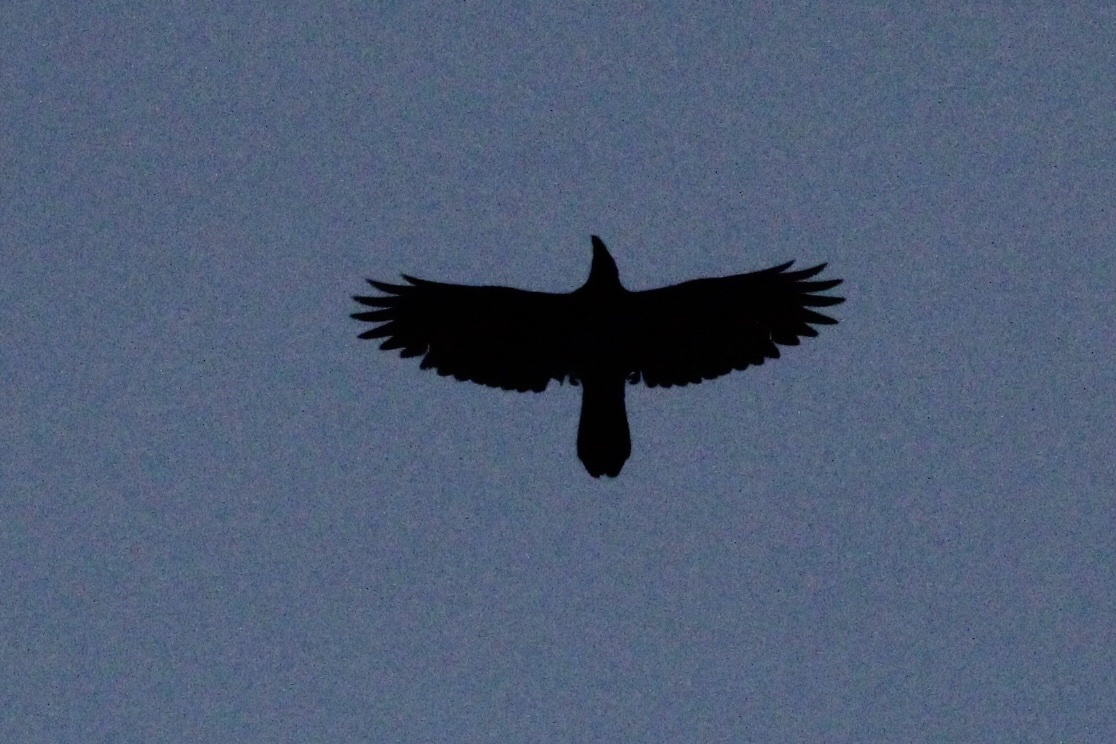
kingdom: Animalia
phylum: Chordata
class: Aves
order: Passeriformes
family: Corvidae
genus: Corvus
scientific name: Corvus corax
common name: Common raven
